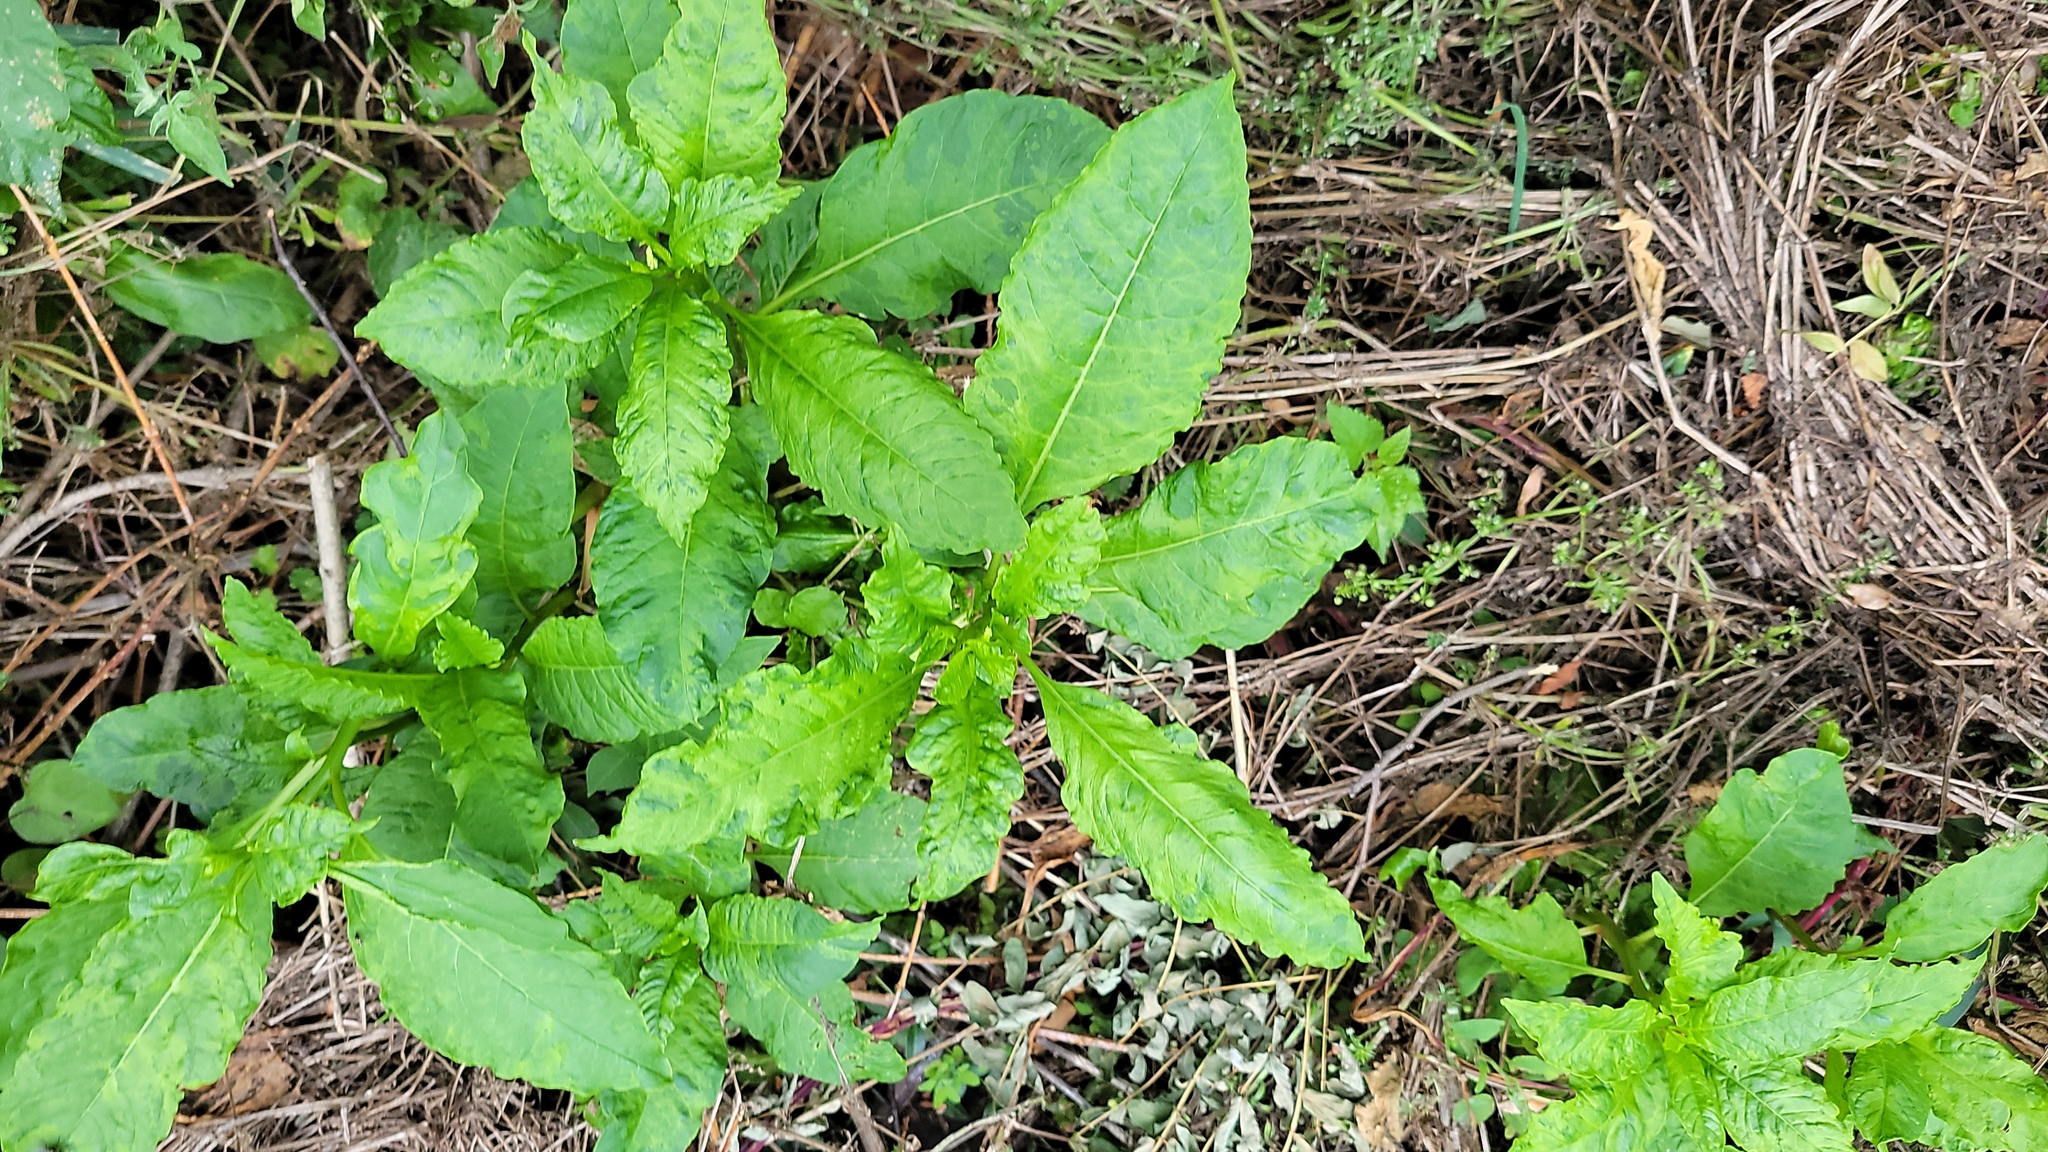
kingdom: Plantae
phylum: Tracheophyta
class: Magnoliopsida
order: Caryophyllales
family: Phytolaccaceae
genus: Phytolacca
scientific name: Phytolacca americana
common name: American pokeweed
